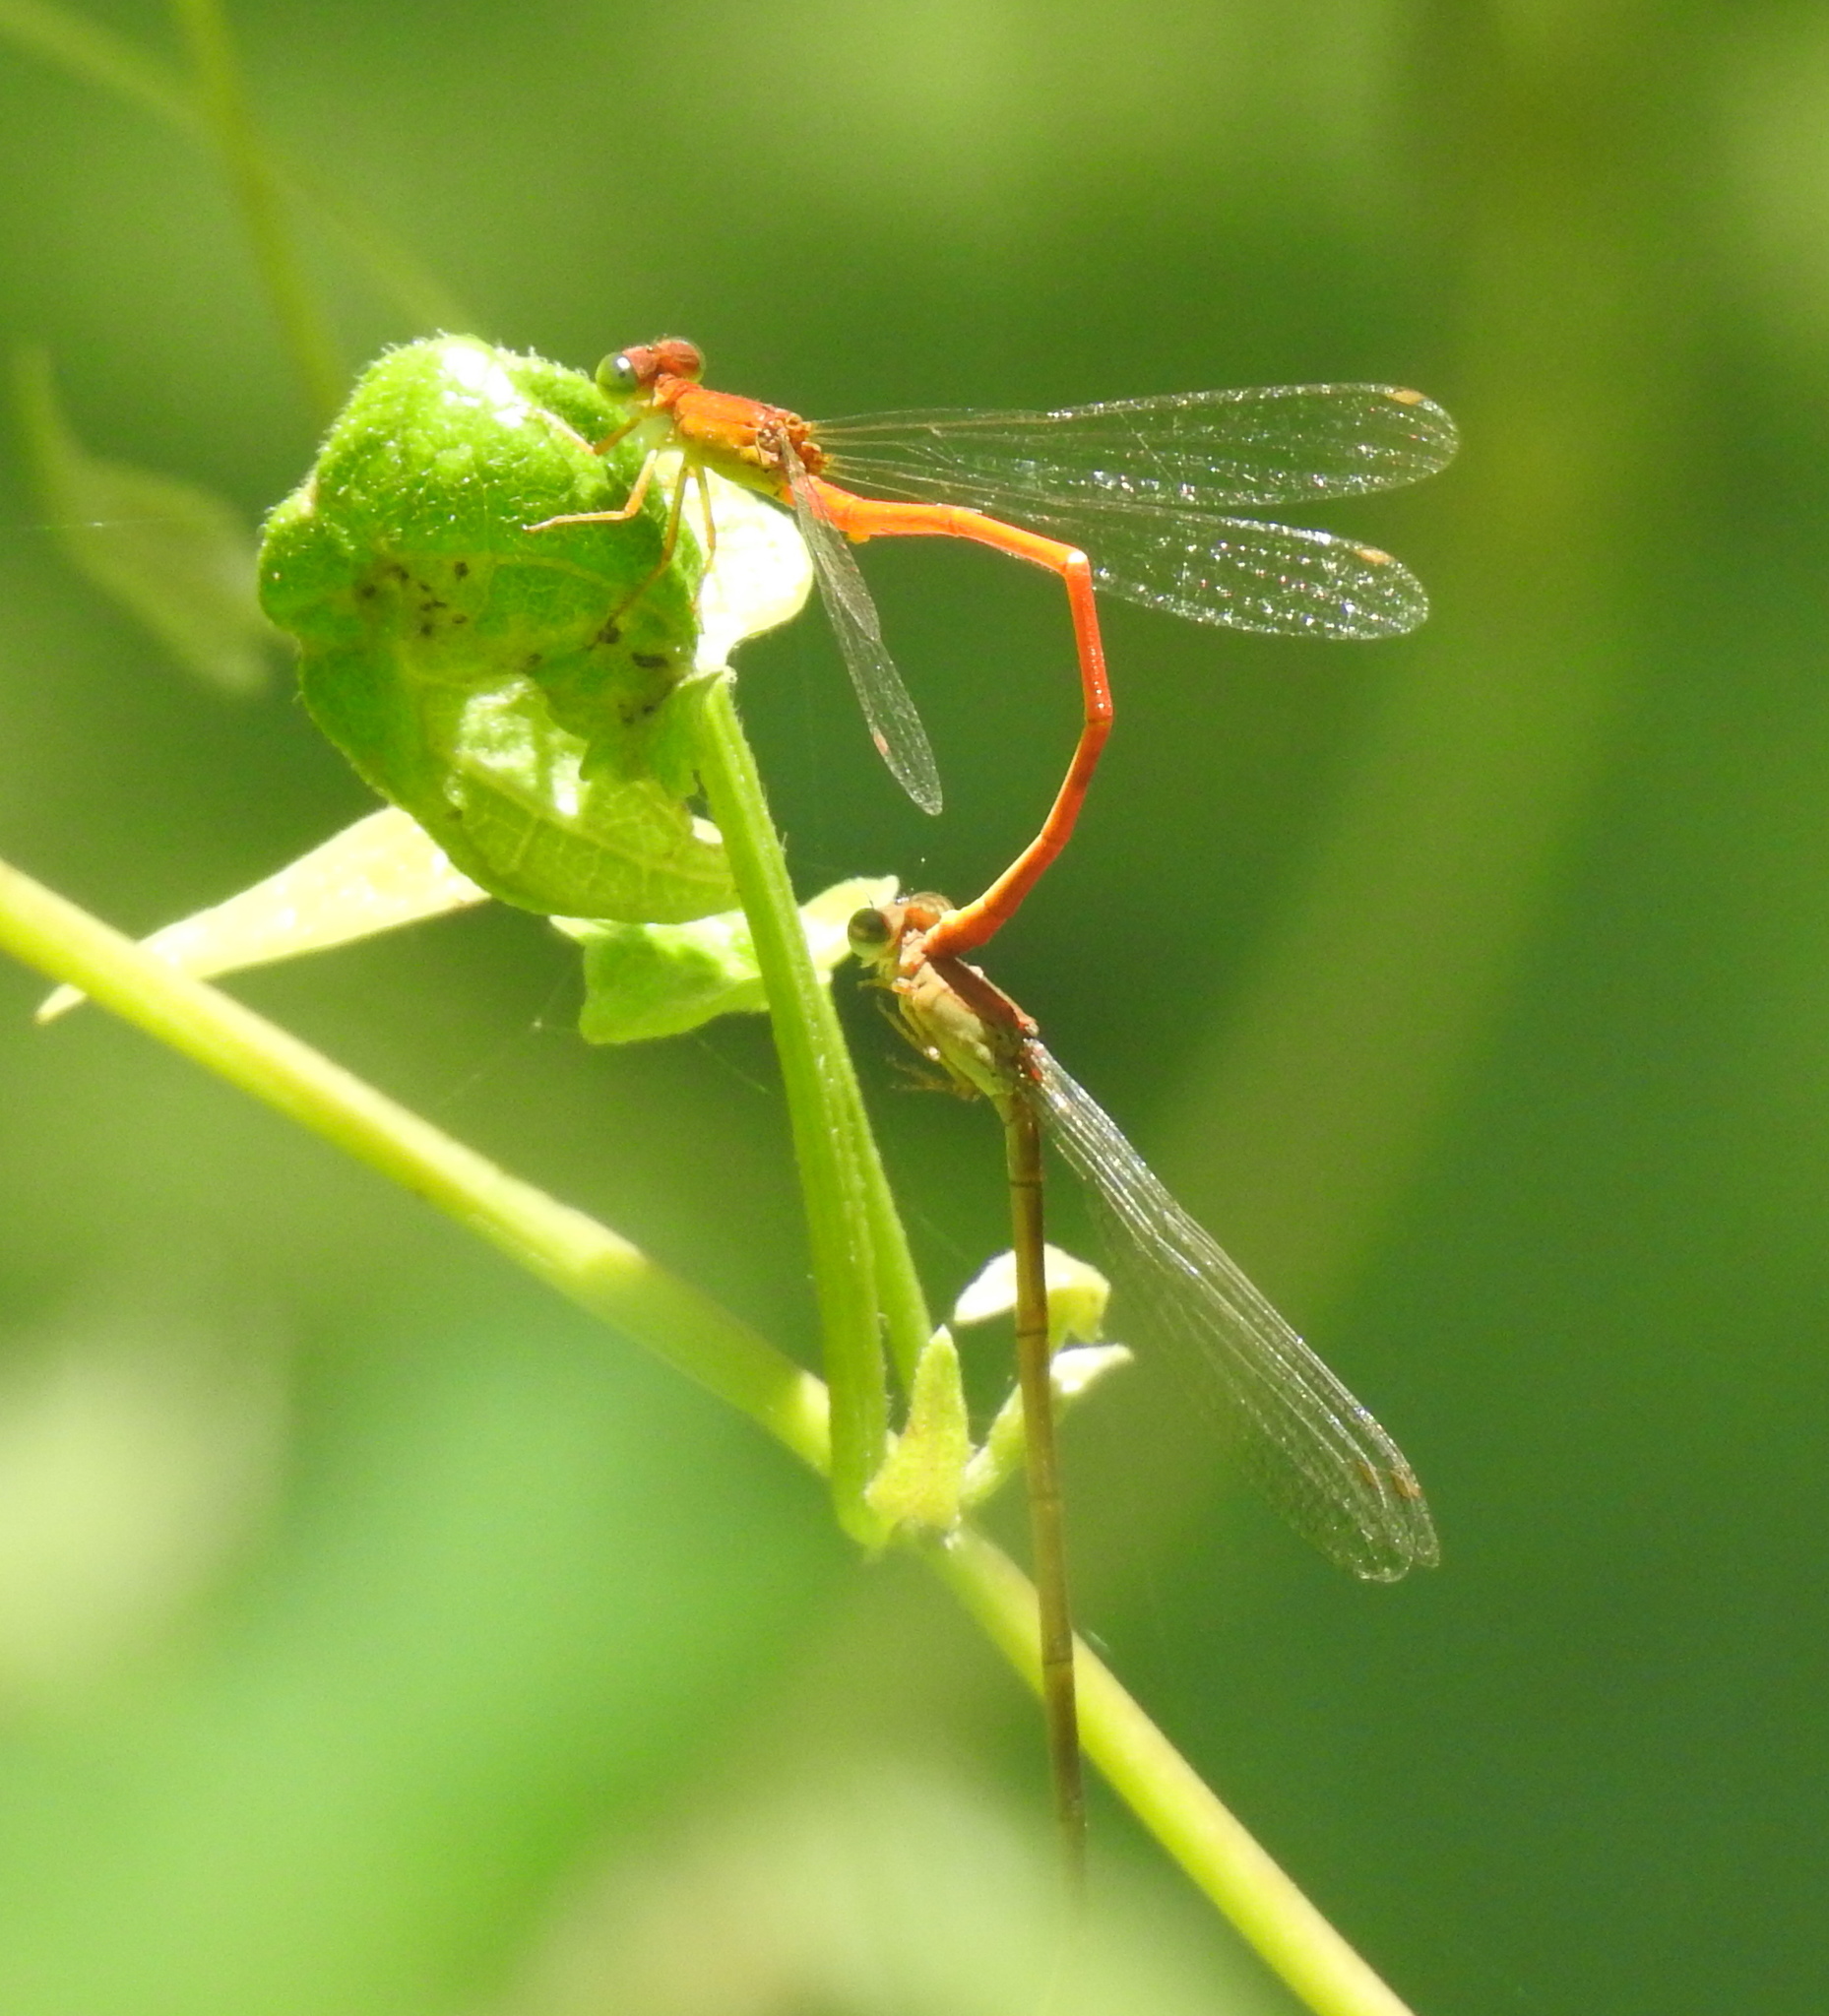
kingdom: Animalia
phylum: Arthropoda
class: Insecta
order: Odonata
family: Coenagrionidae
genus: Ceriagrion
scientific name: Ceriagrion glabrum
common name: Common pond damsel
